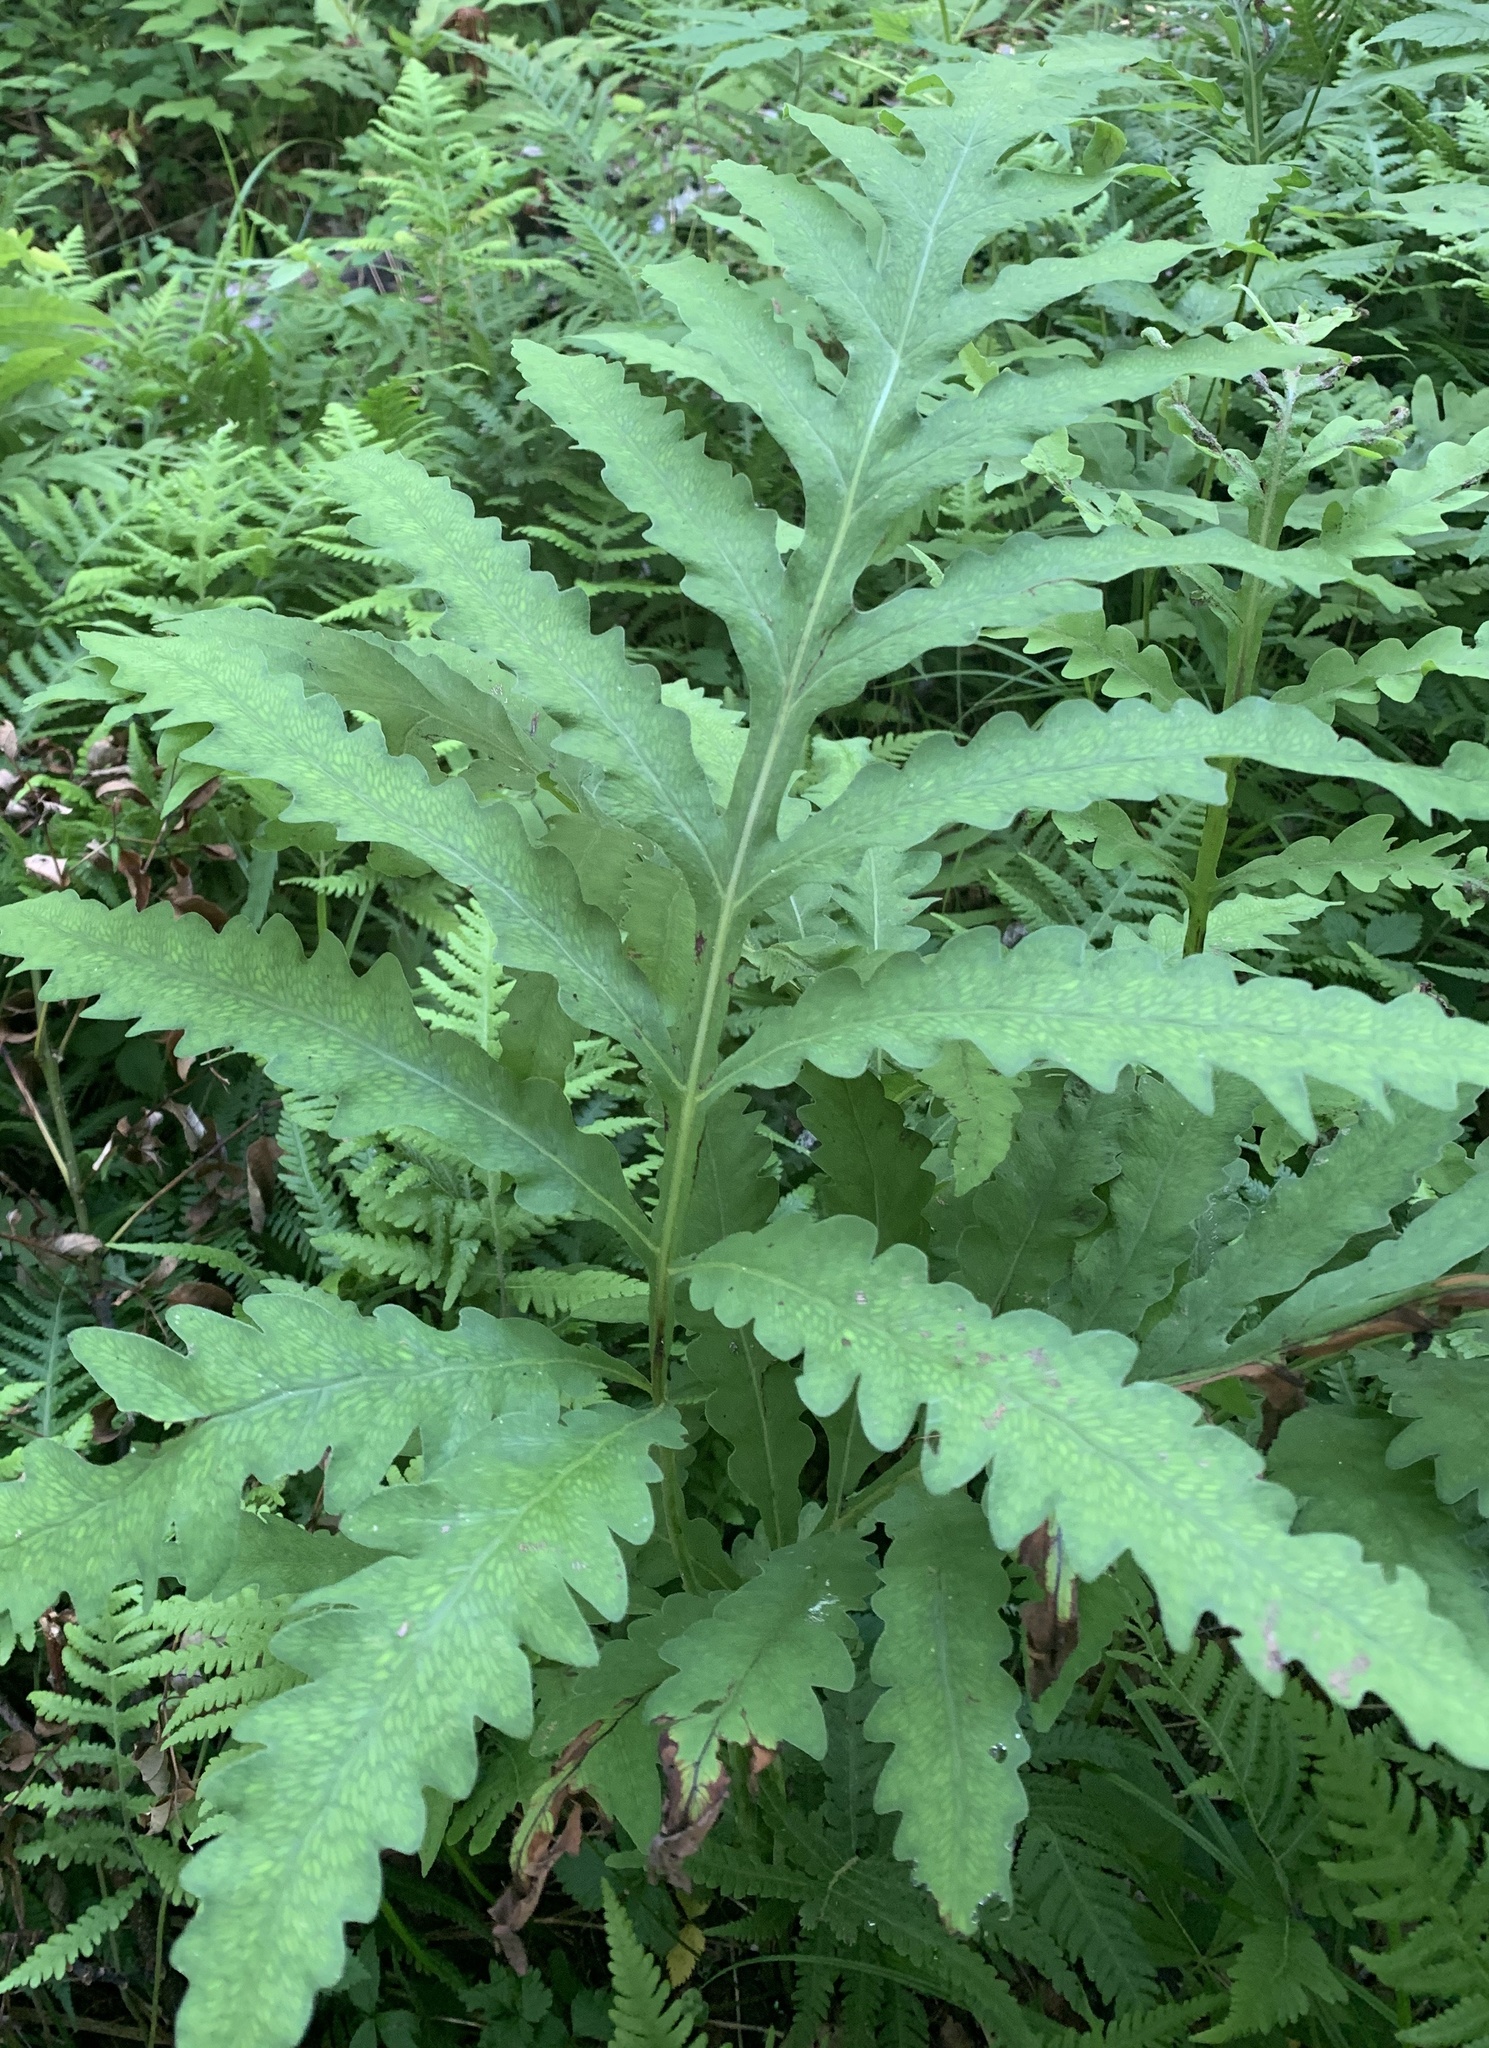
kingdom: Plantae
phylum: Tracheophyta
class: Polypodiopsida
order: Polypodiales
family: Onocleaceae
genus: Onoclea
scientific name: Onoclea sensibilis
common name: Sensitive fern
